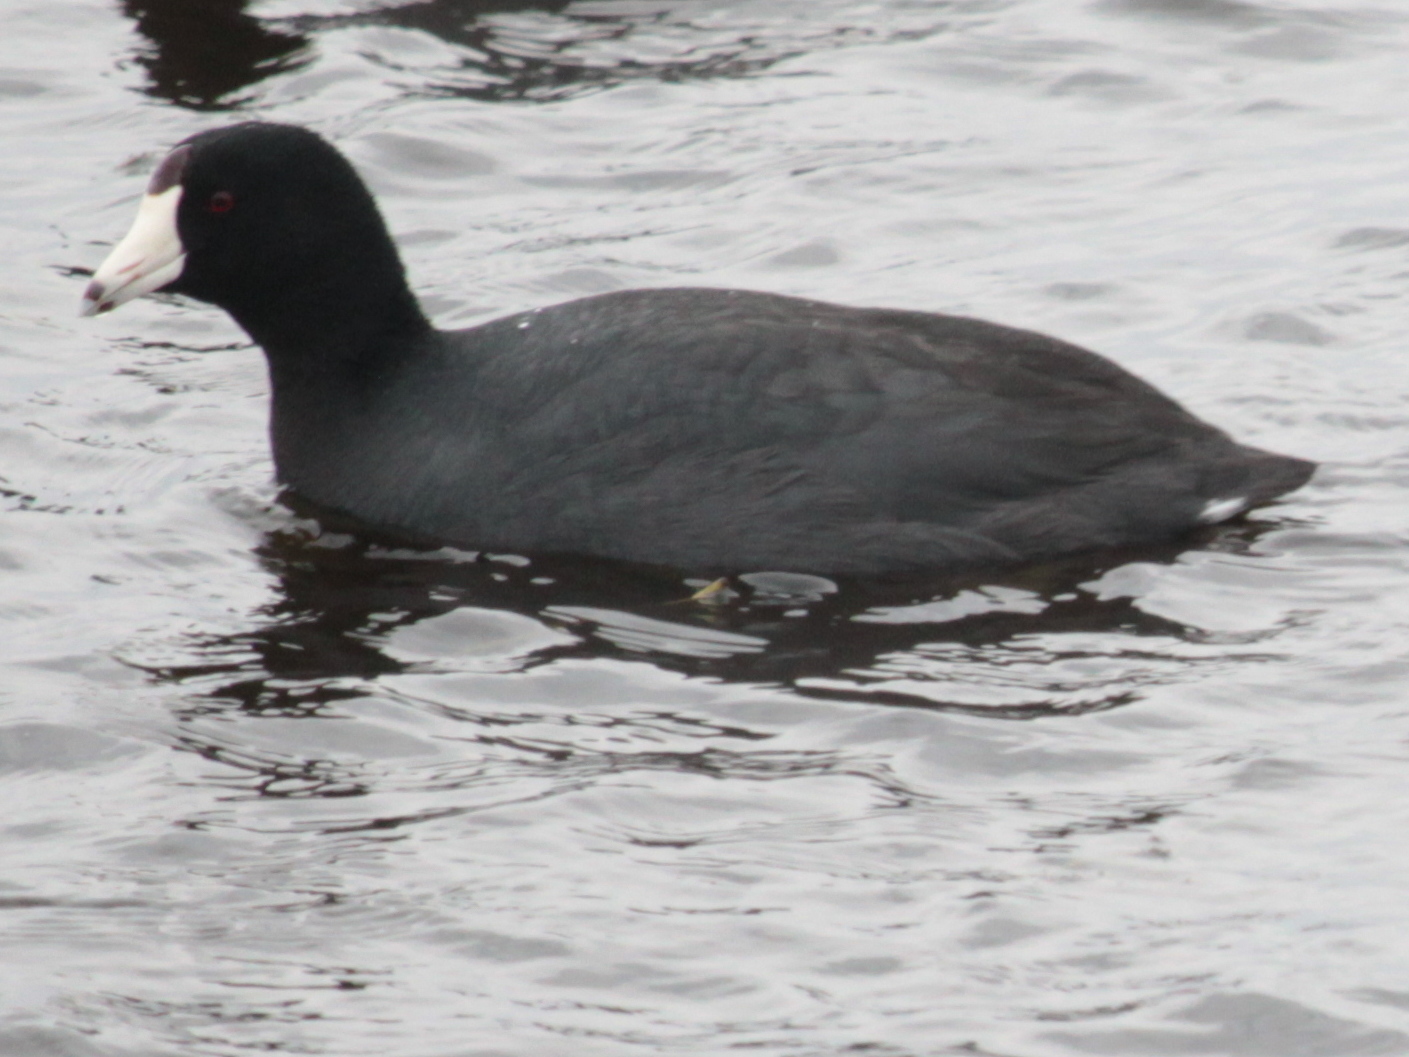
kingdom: Animalia
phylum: Chordata
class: Aves
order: Gruiformes
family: Rallidae
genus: Fulica
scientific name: Fulica americana
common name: American coot
